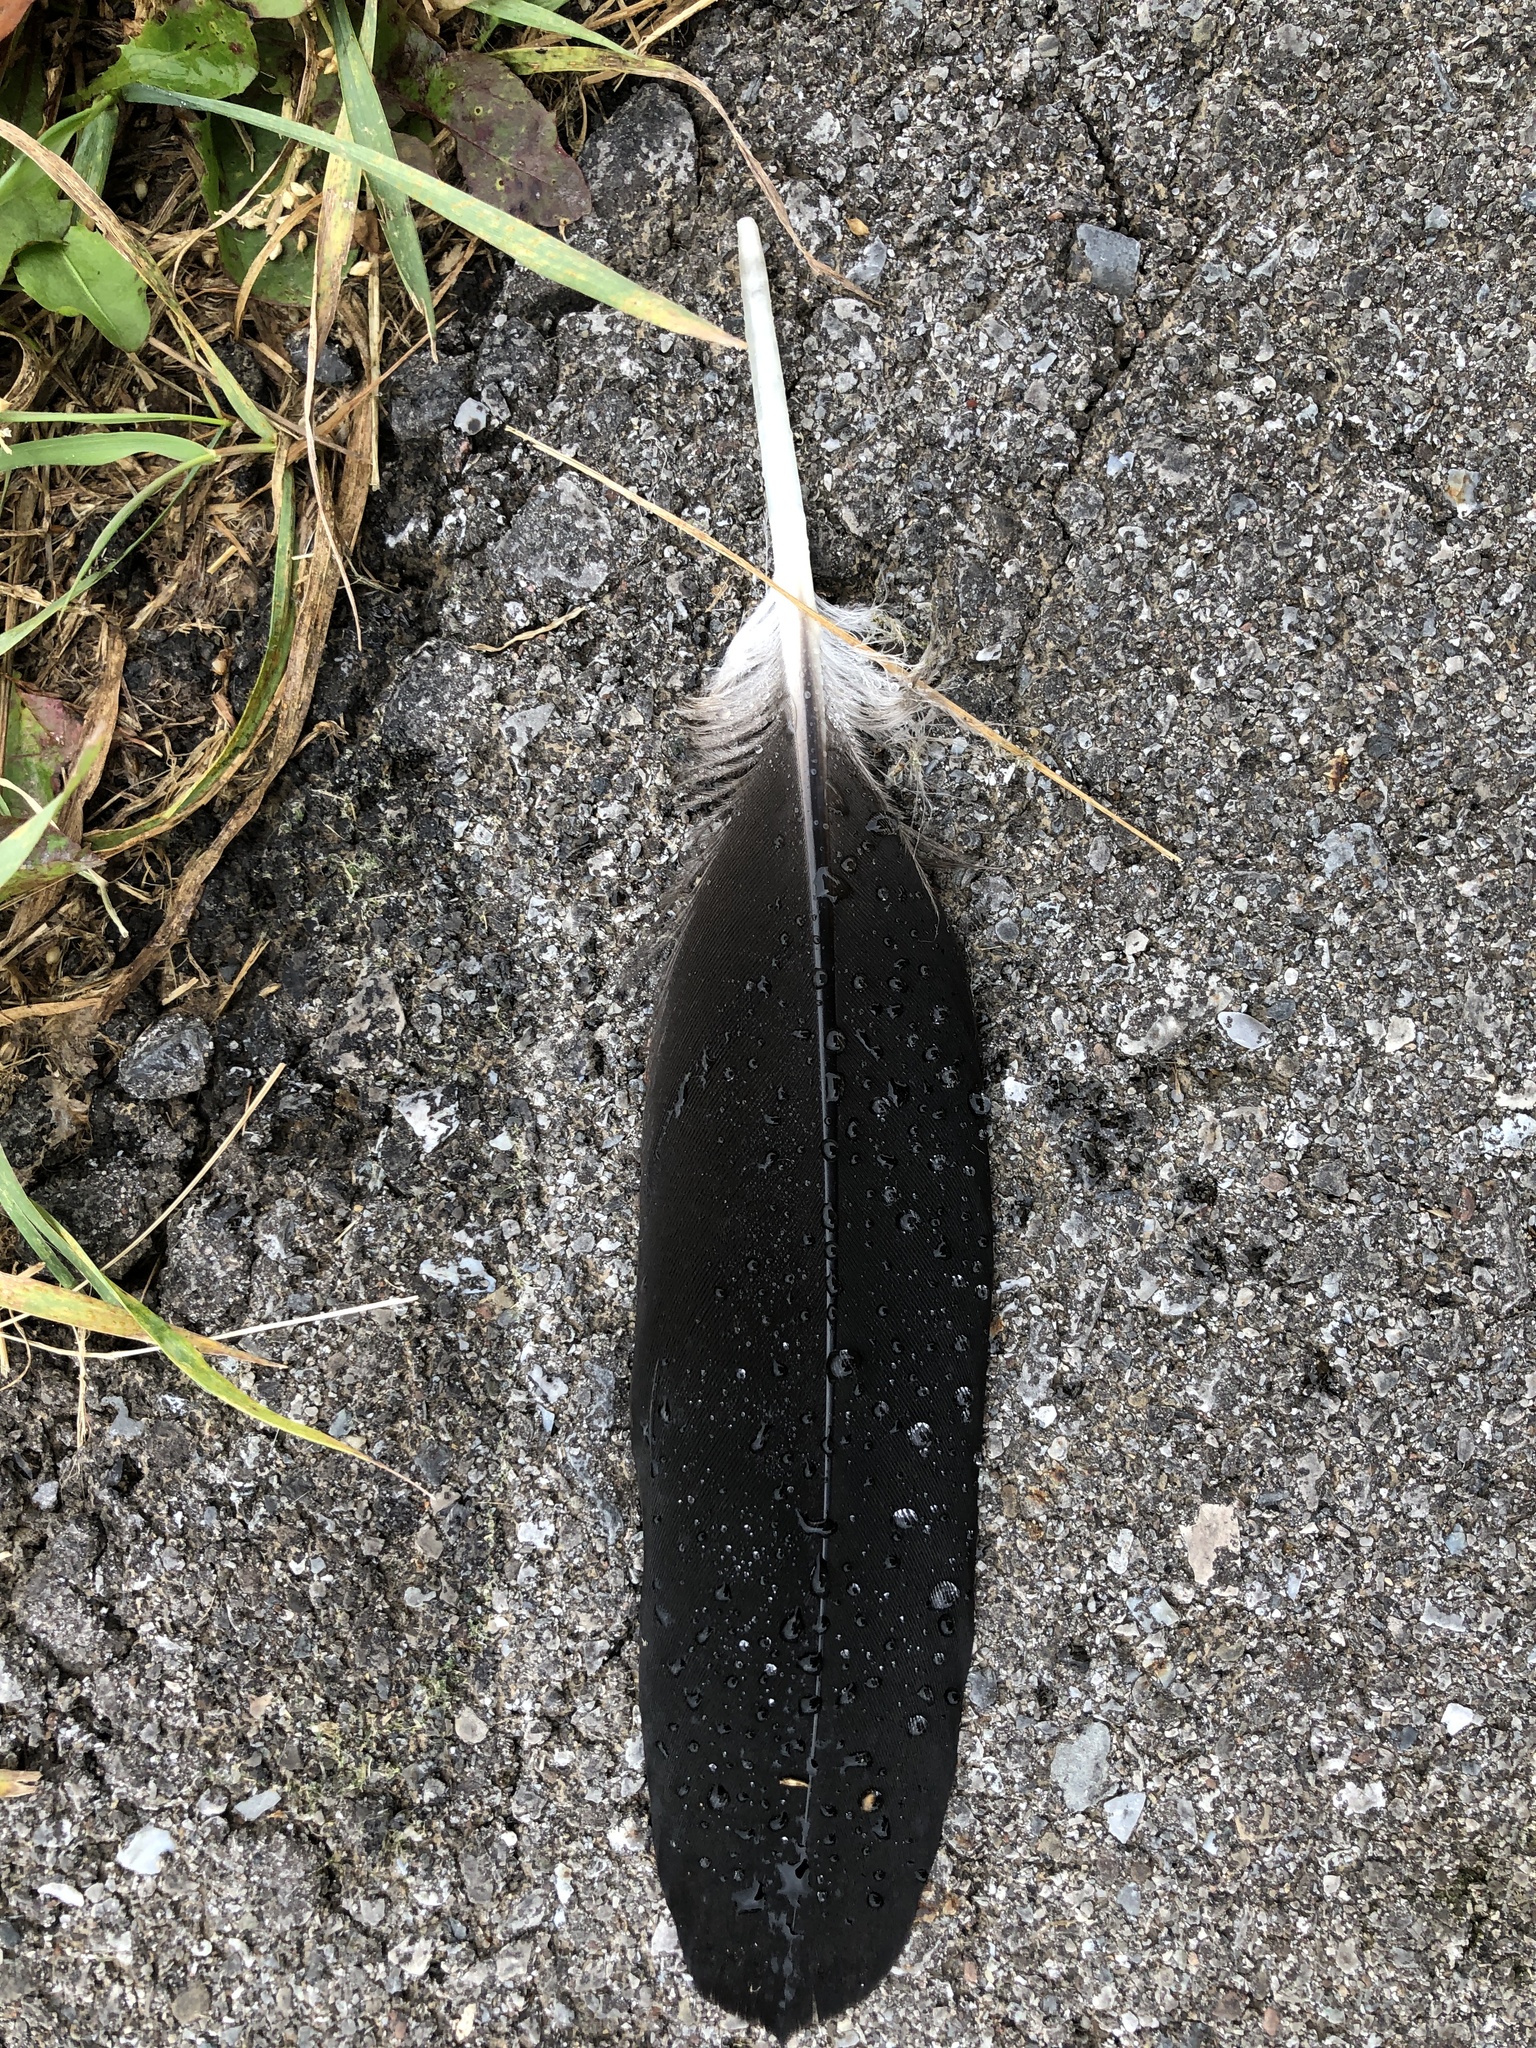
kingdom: Animalia
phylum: Chordata
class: Aves
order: Anseriformes
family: Anatidae
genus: Branta
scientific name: Branta canadensis
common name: Canada goose
